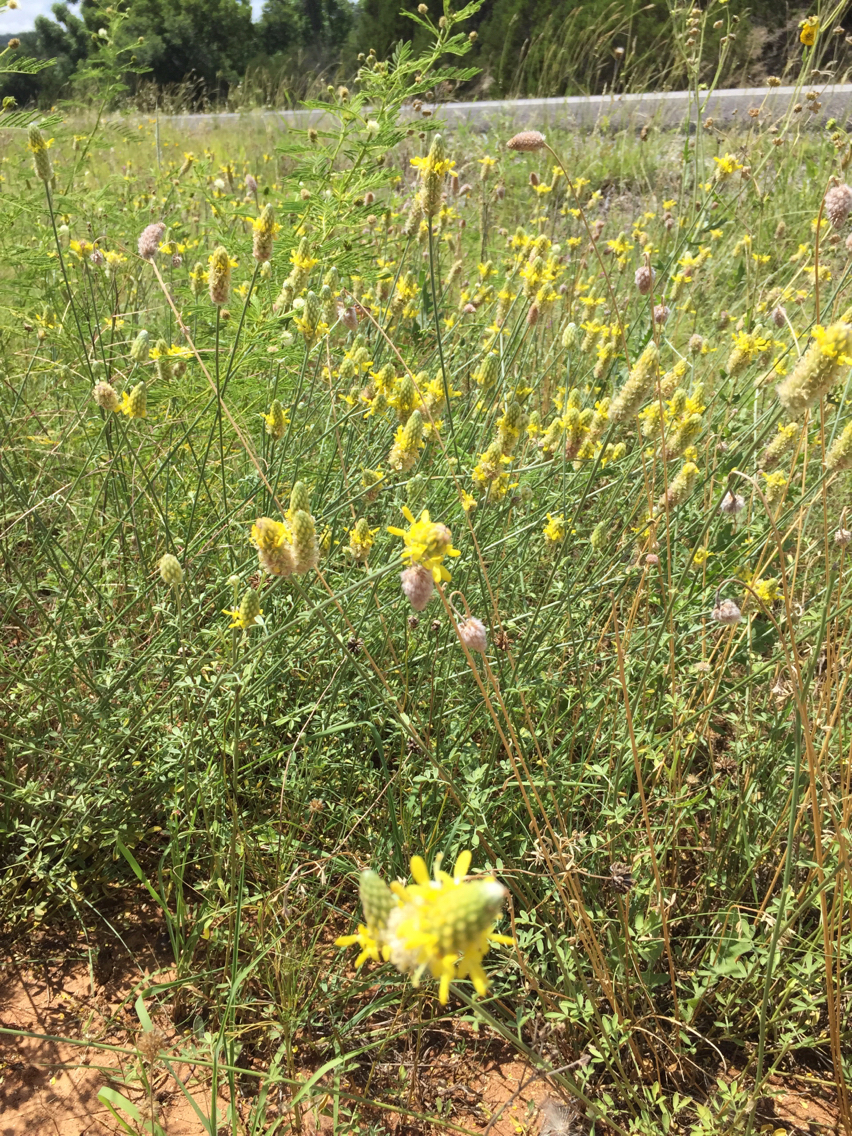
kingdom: Plantae
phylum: Tracheophyta
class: Magnoliopsida
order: Fabales
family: Fabaceae
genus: Dalea
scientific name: Dalea aurea
